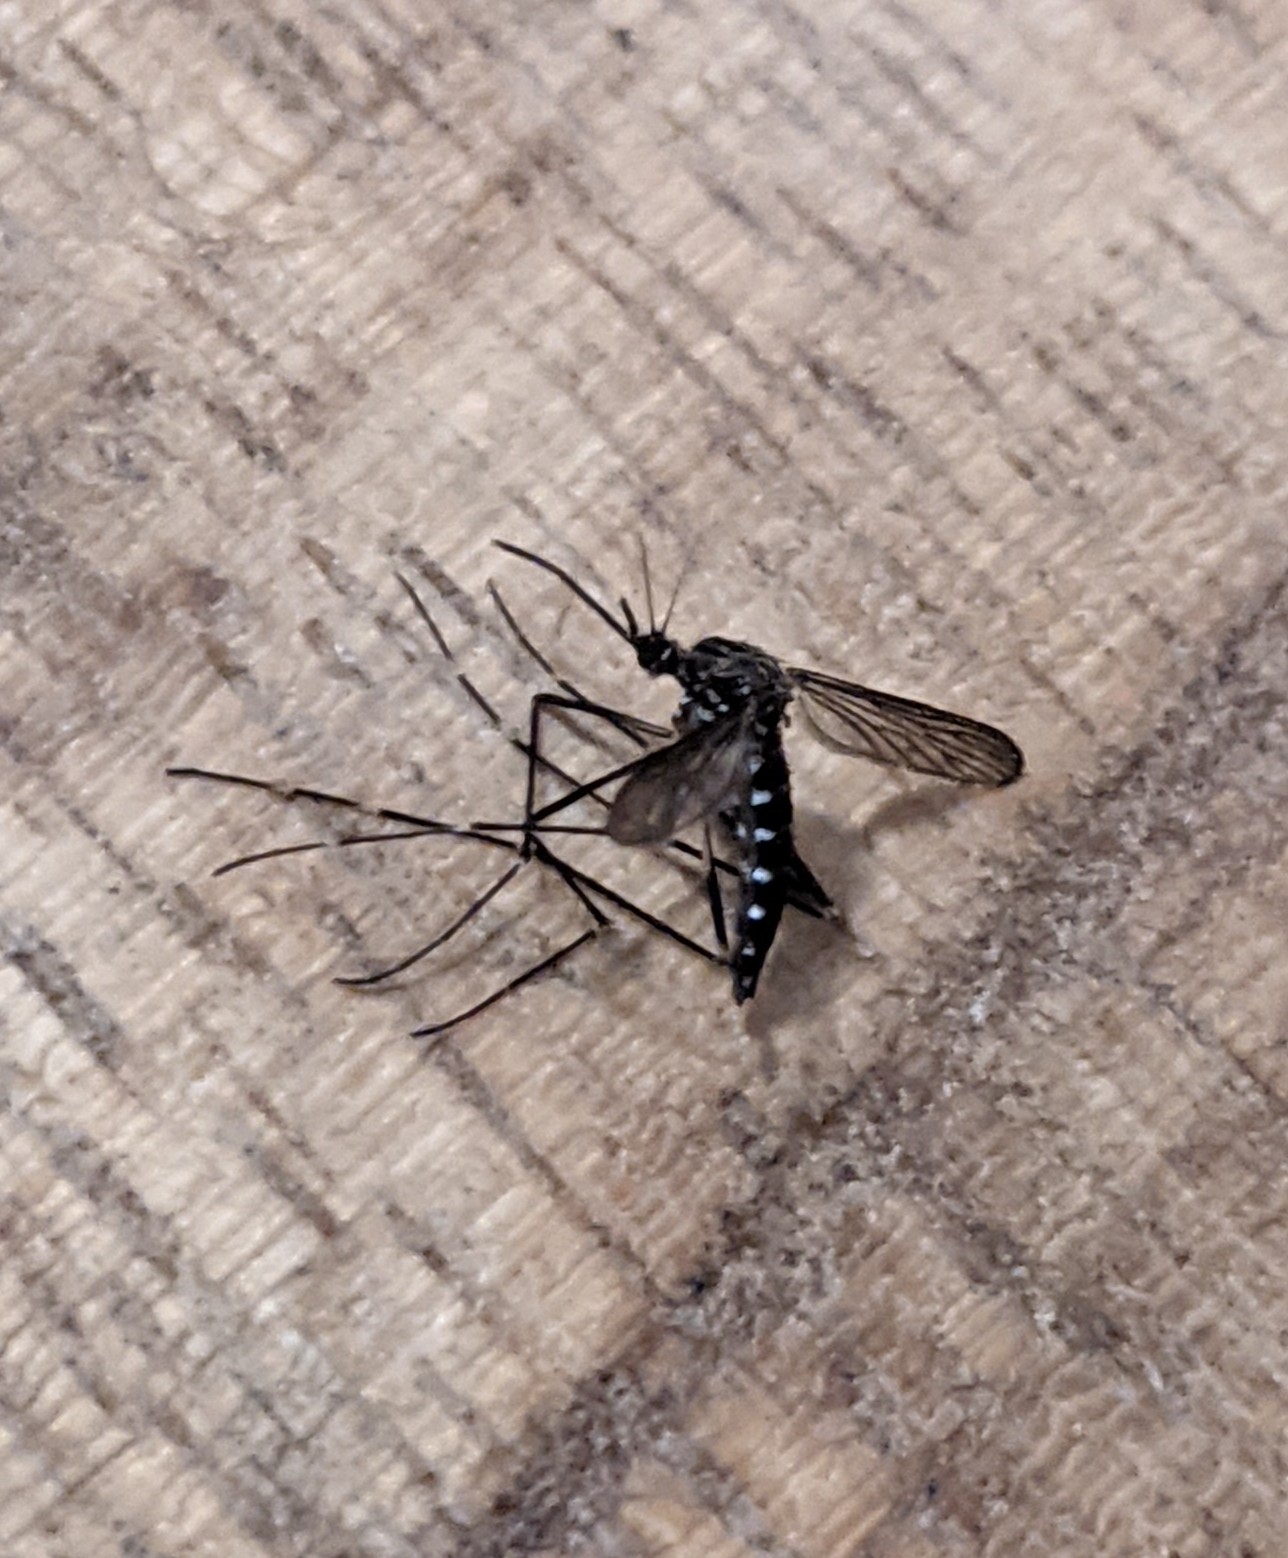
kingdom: Animalia
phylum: Arthropoda
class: Insecta
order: Diptera
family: Culicidae
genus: Aedes
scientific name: Aedes japonicus
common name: Asian bush mosquito
